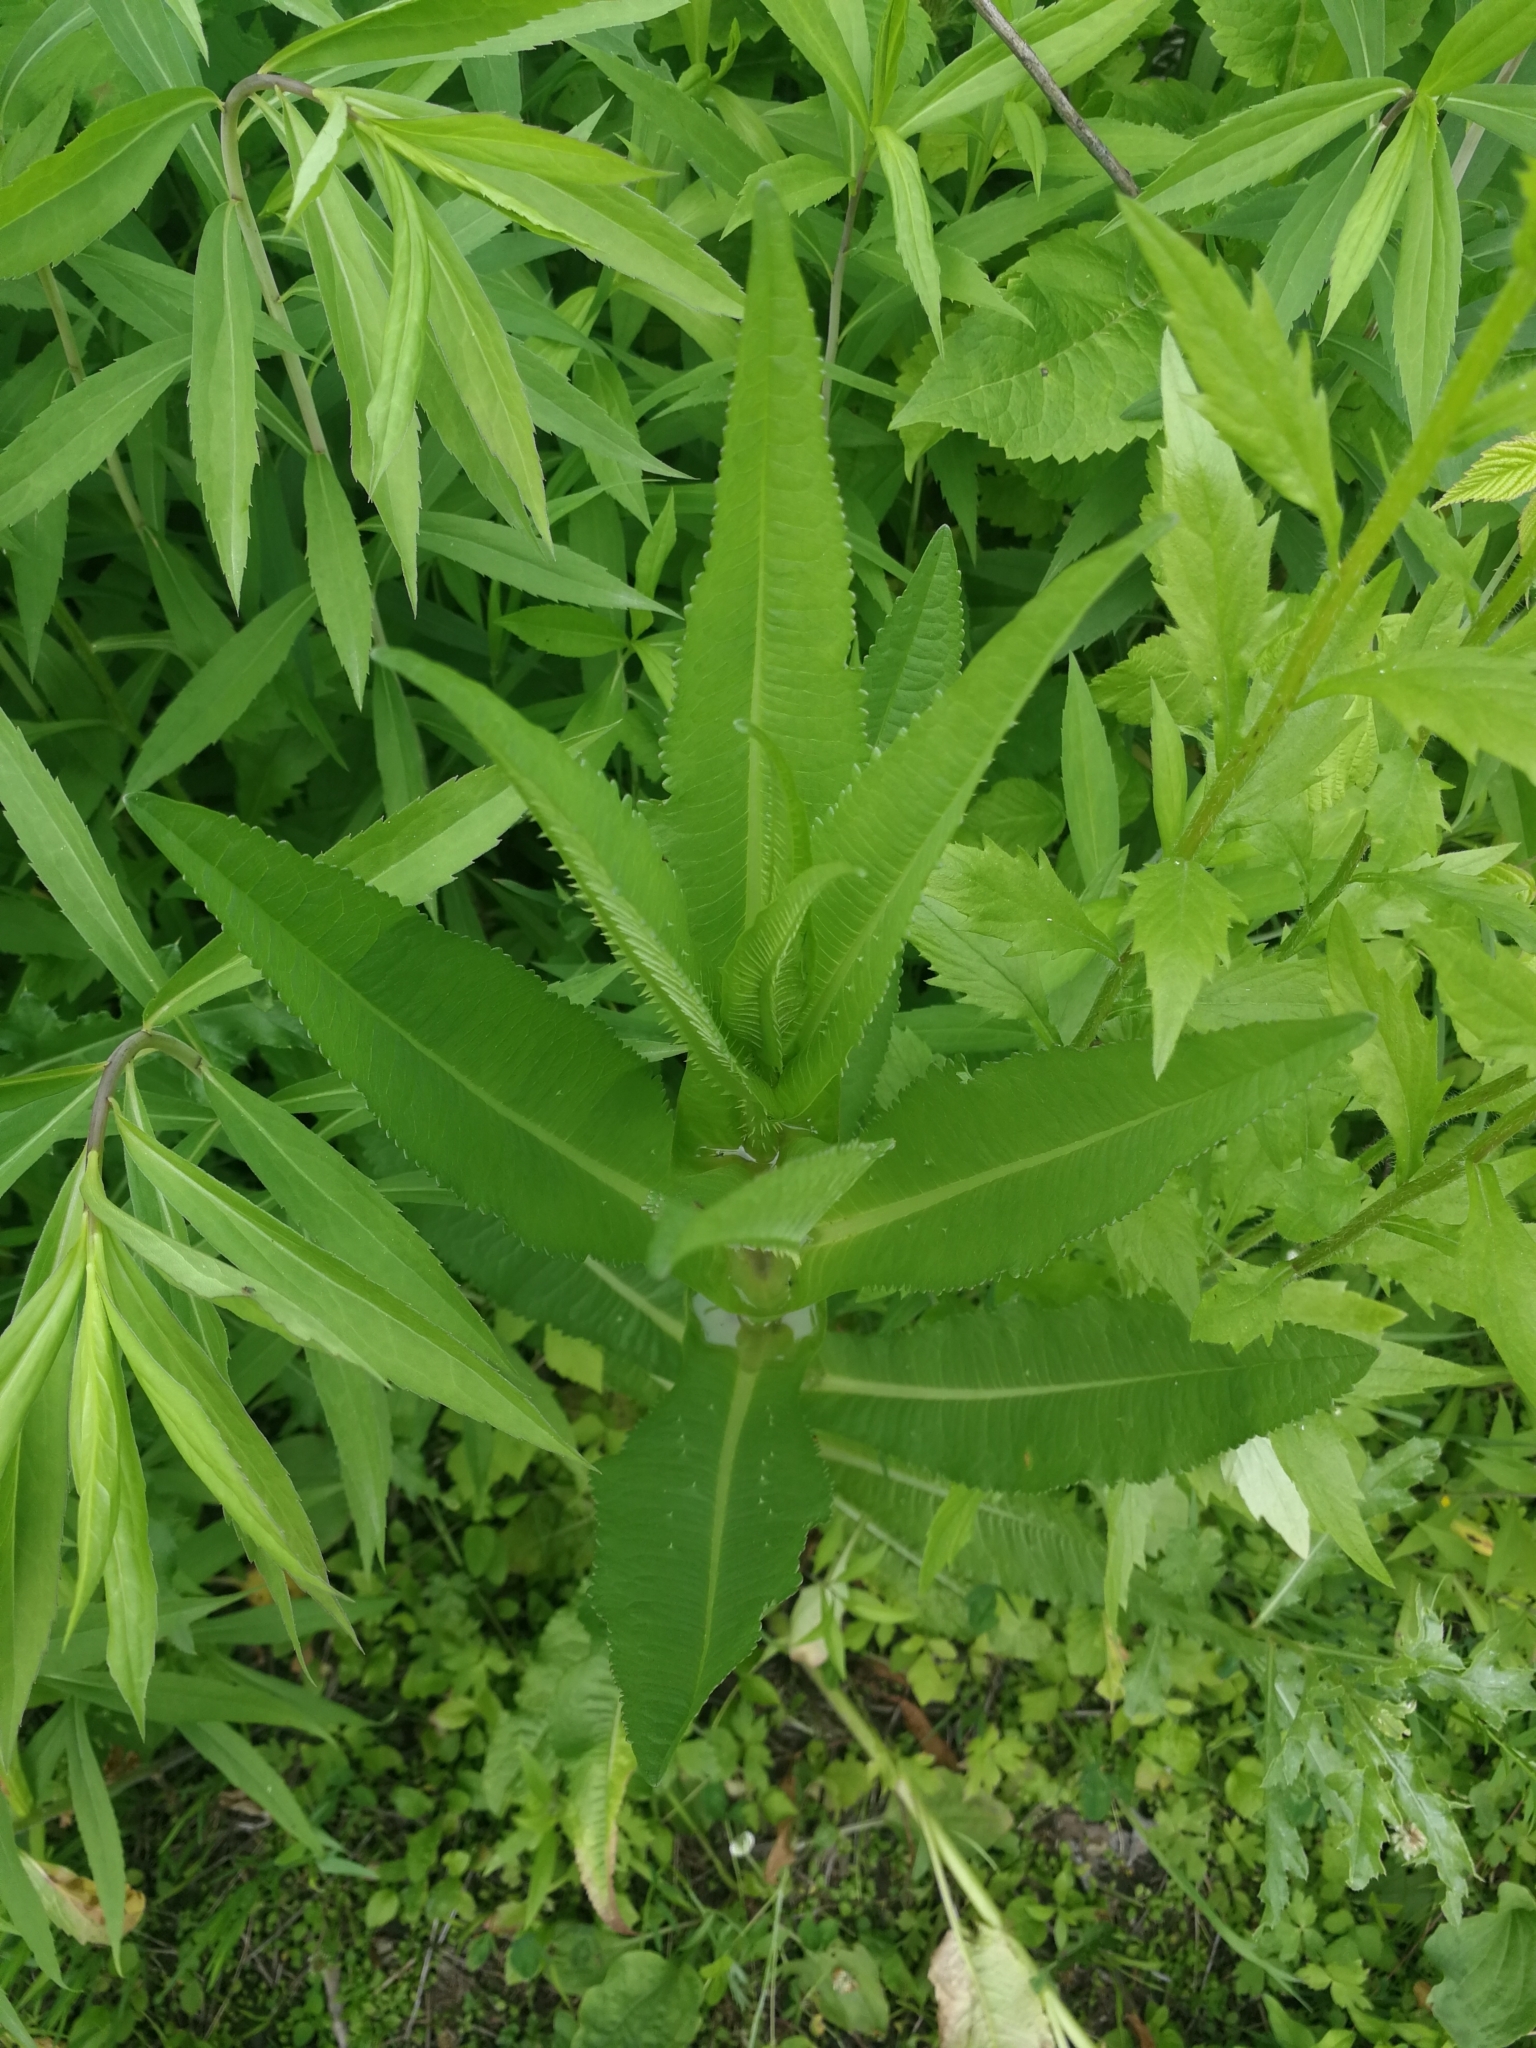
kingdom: Plantae
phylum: Tracheophyta
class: Magnoliopsida
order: Dipsacales
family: Caprifoliaceae
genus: Dipsacus
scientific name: Dipsacus fullonum
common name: Teasel
